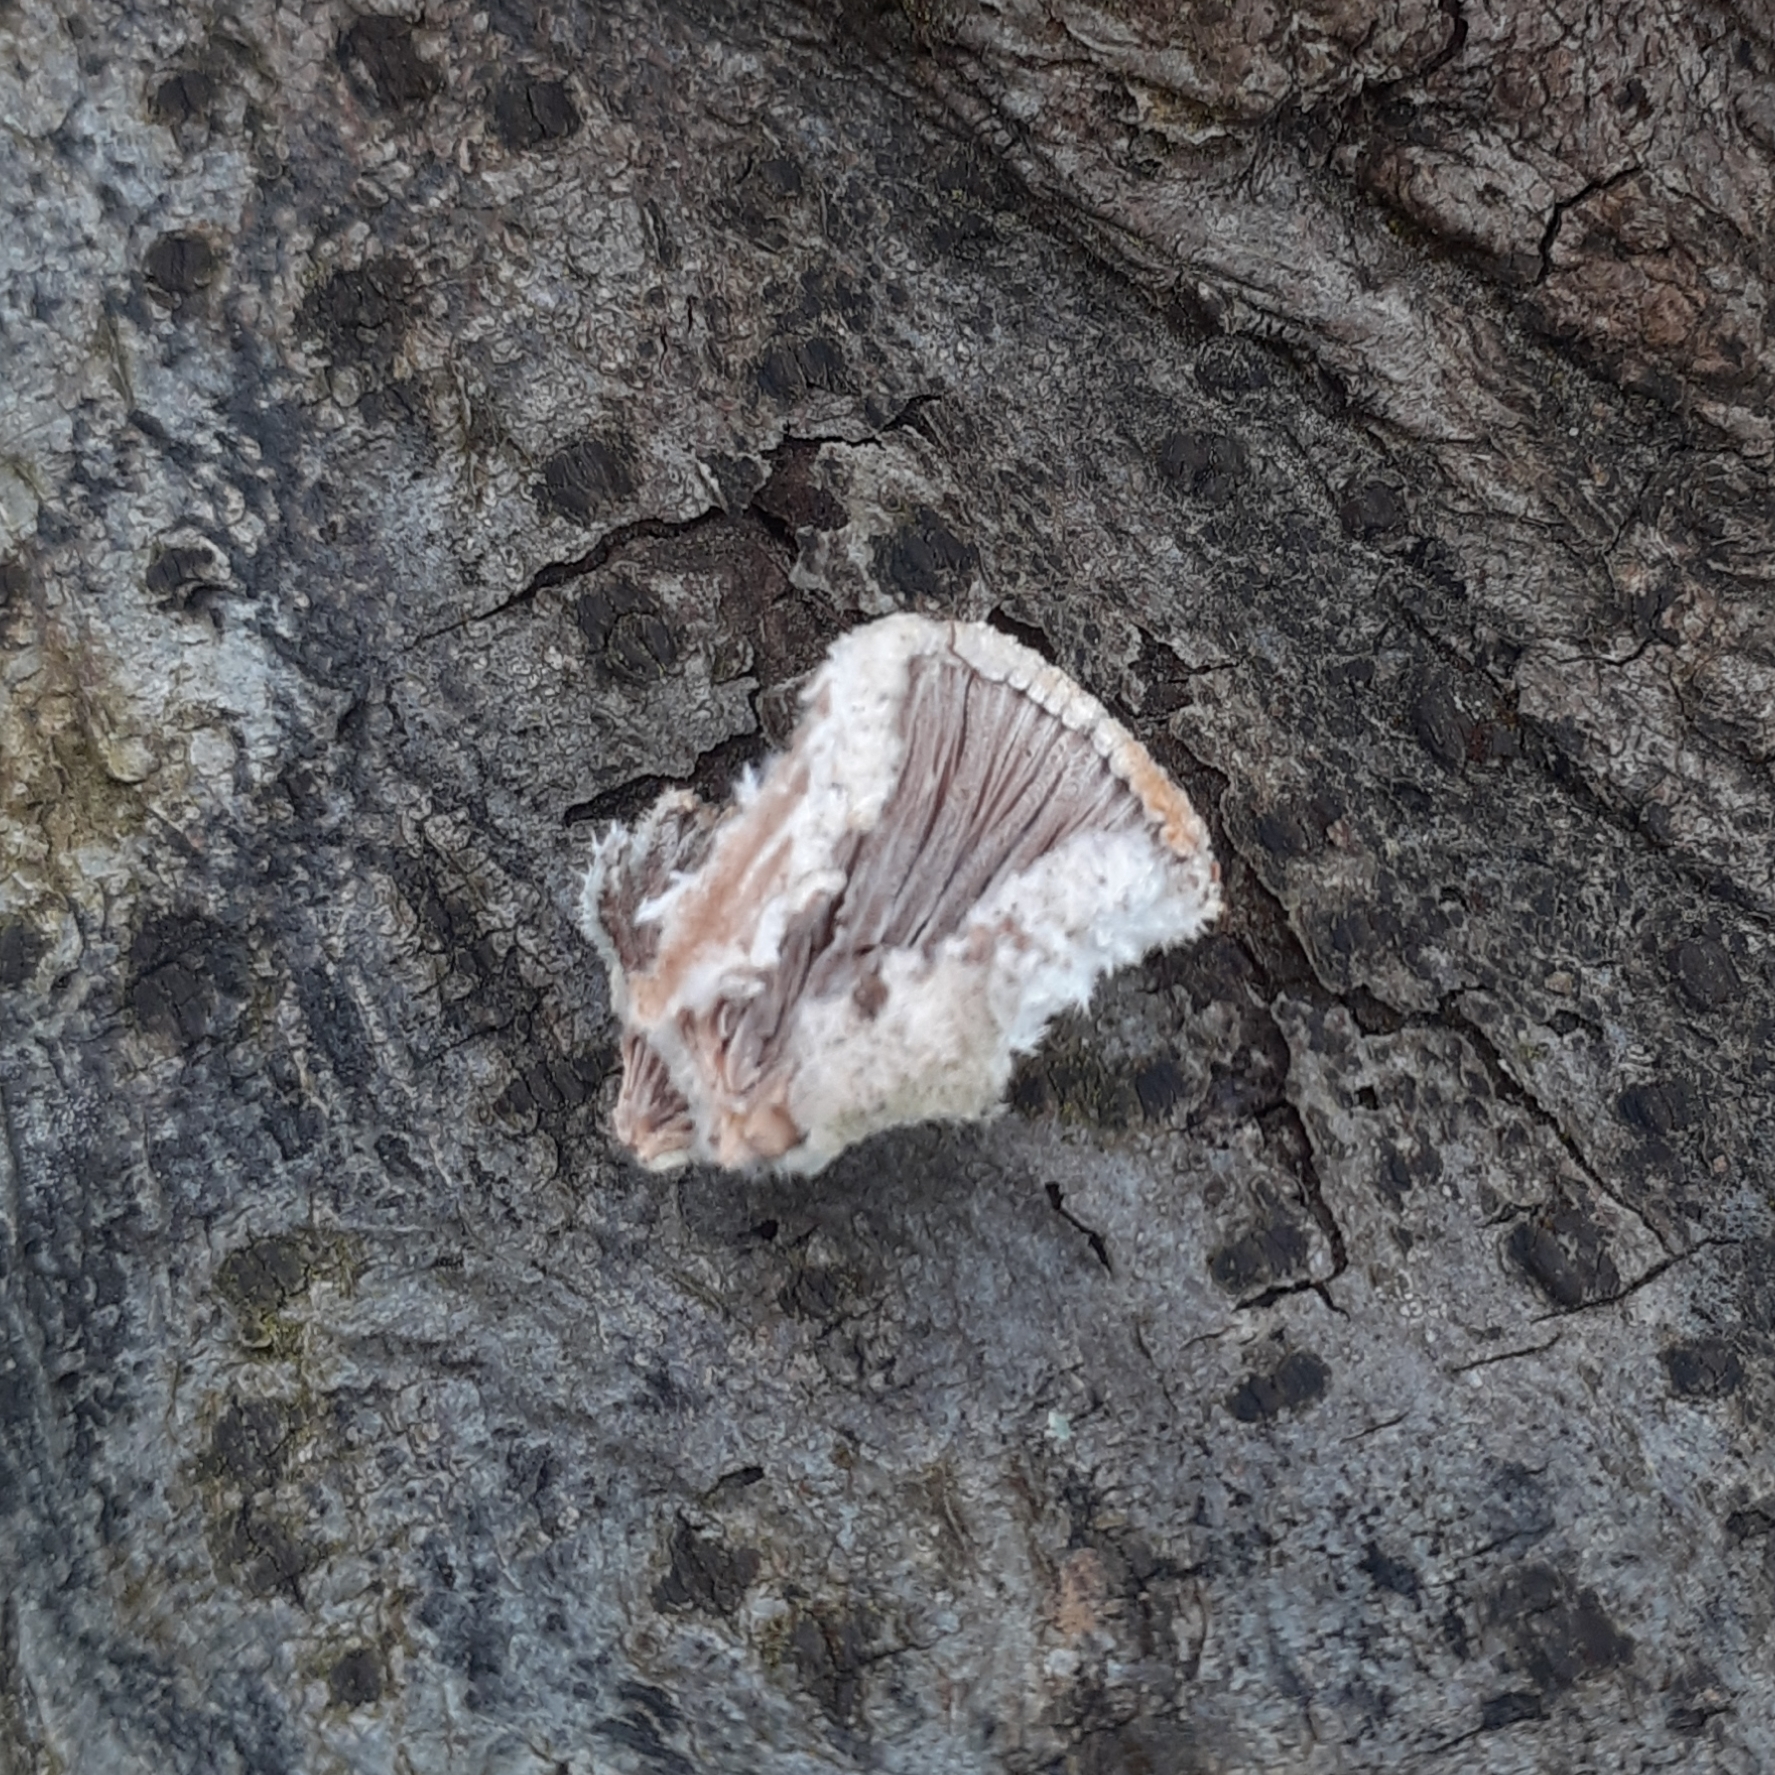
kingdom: Fungi
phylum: Basidiomycota
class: Agaricomycetes
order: Agaricales
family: Schizophyllaceae
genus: Schizophyllum
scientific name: Schizophyllum commune
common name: Common porecrust
